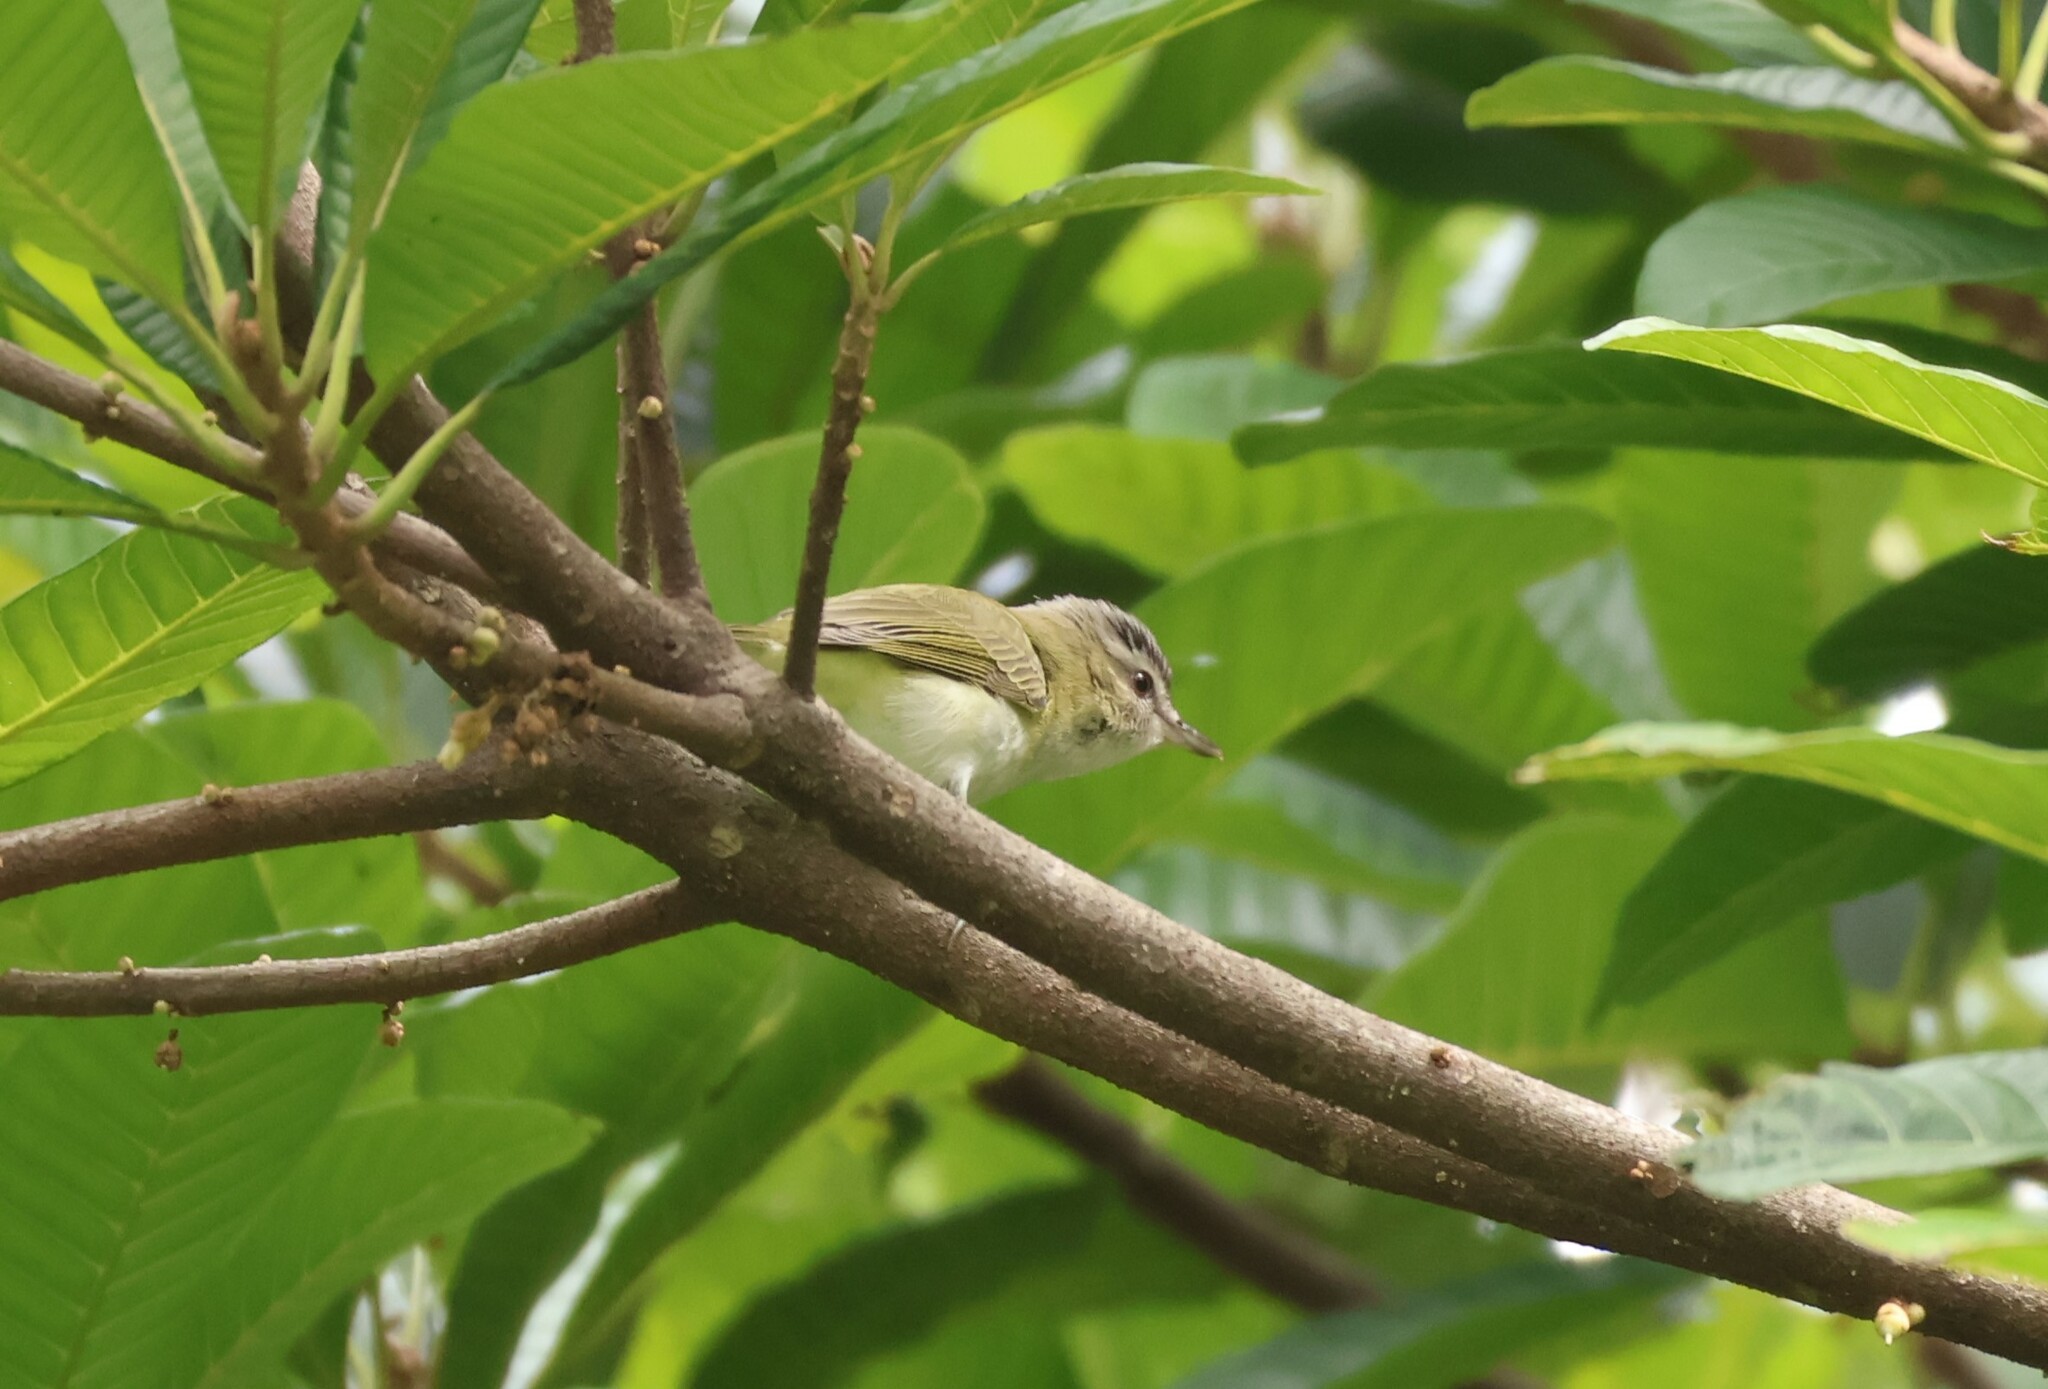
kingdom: Animalia
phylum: Chordata
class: Aves
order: Passeriformes
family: Vireonidae
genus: Vireo
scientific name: Vireo olivaceus
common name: Red-eyed vireo
